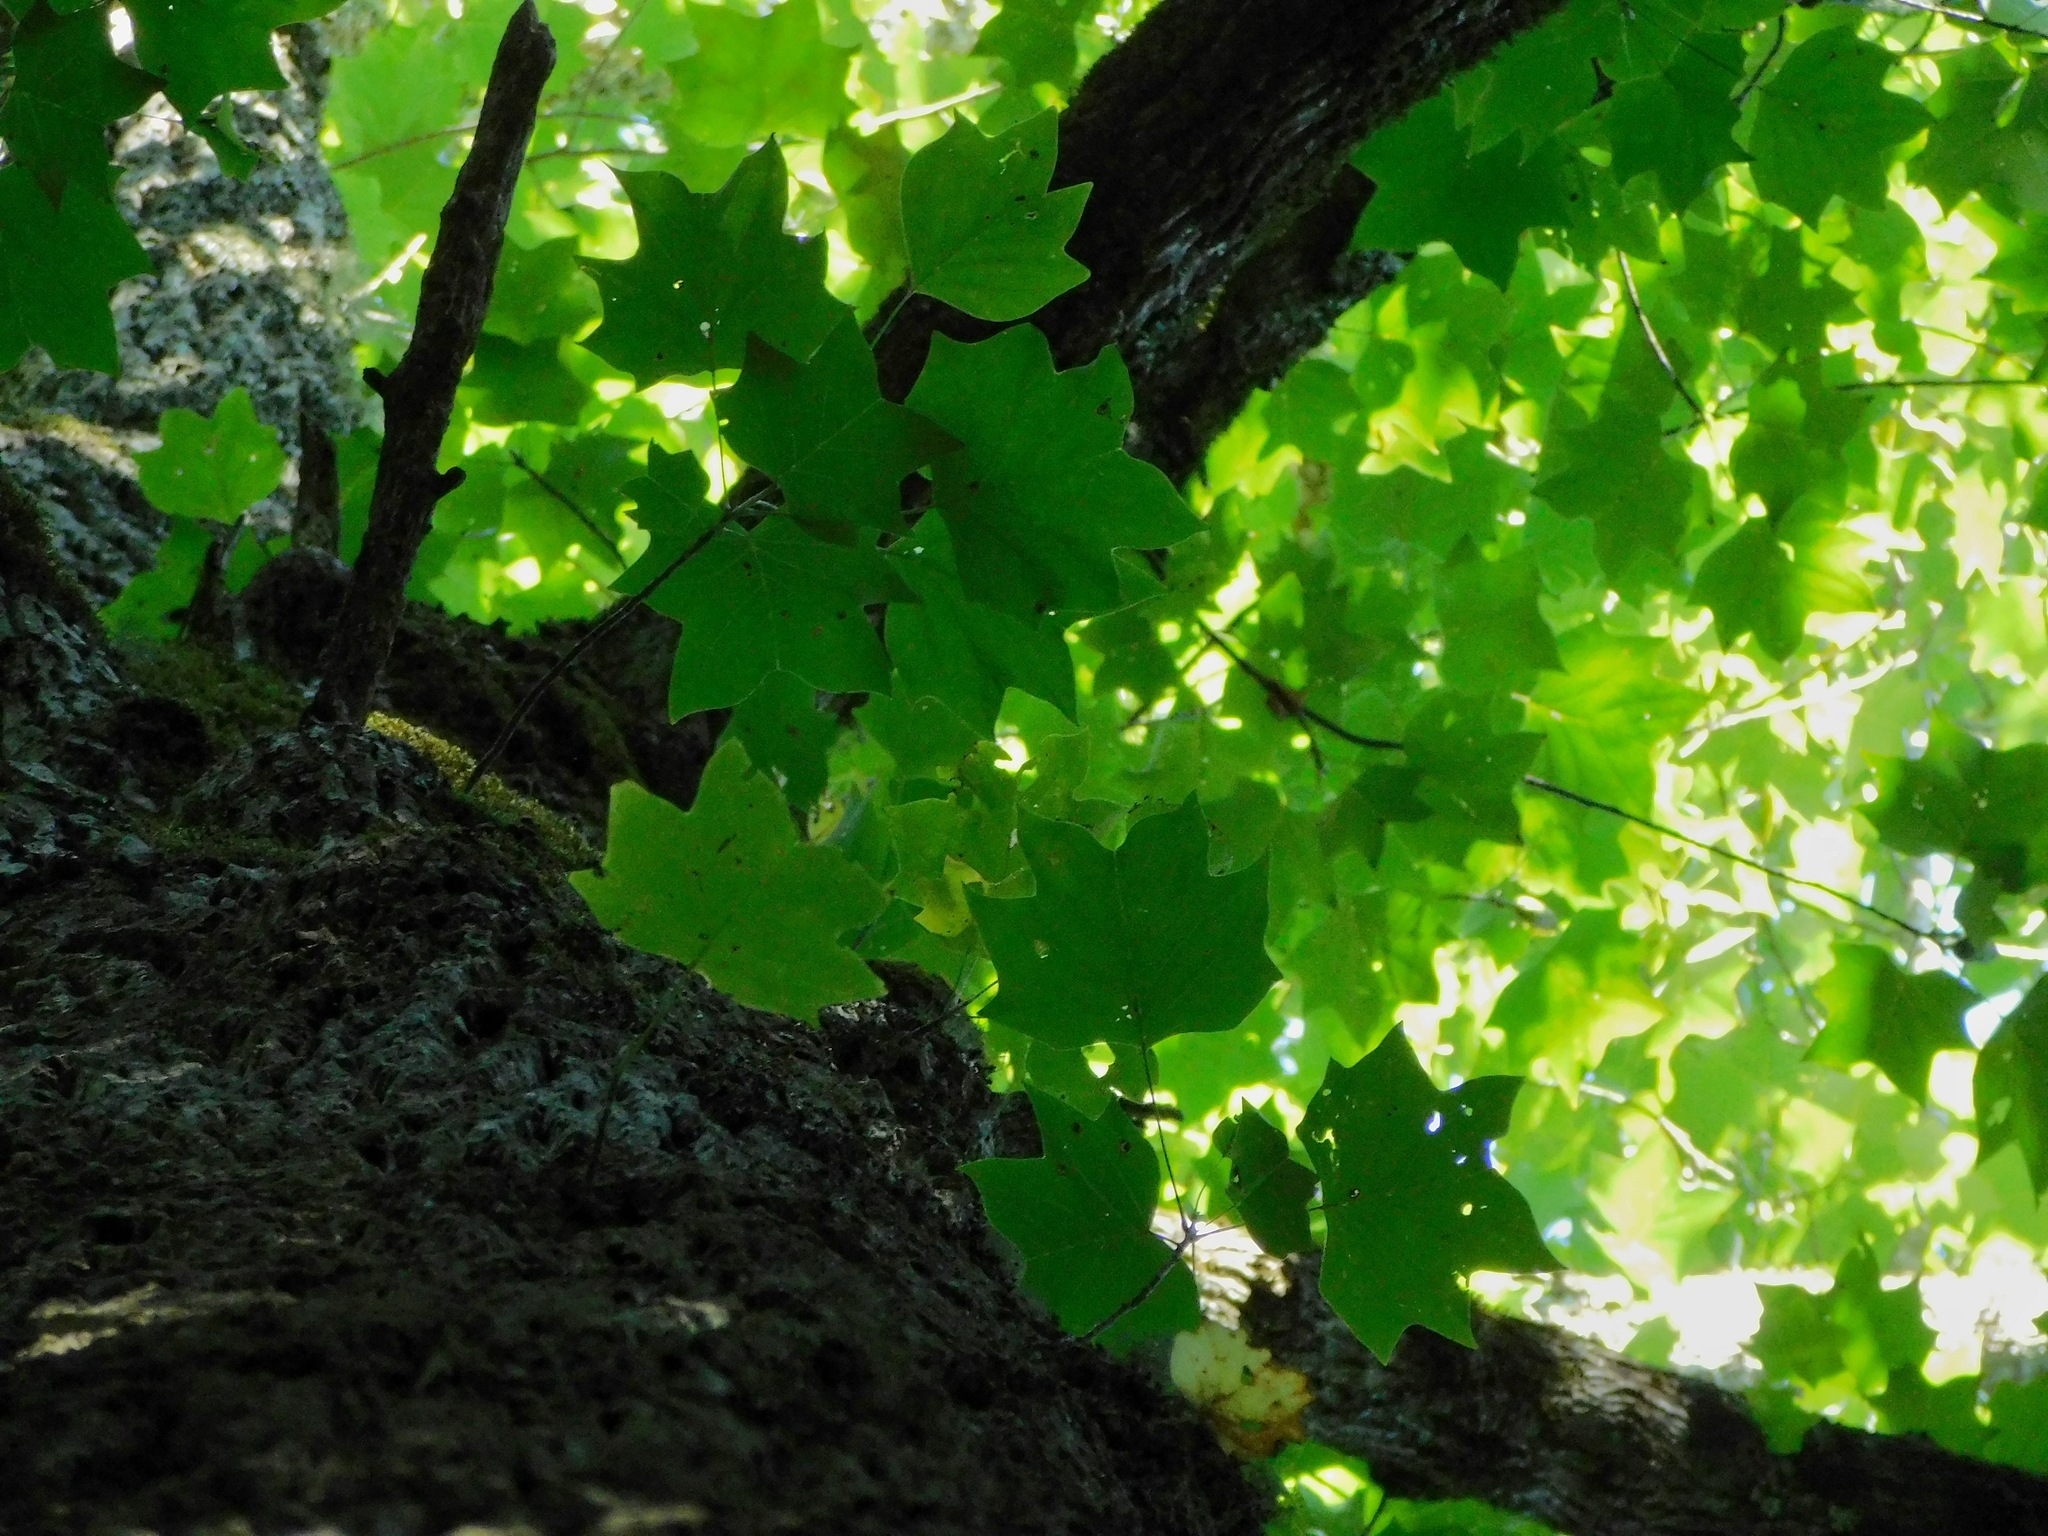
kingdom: Plantae
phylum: Tracheophyta
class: Magnoliopsida
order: Magnoliales
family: Magnoliaceae
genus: Liriodendron
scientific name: Liriodendron tulipifera
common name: Tulip tree
